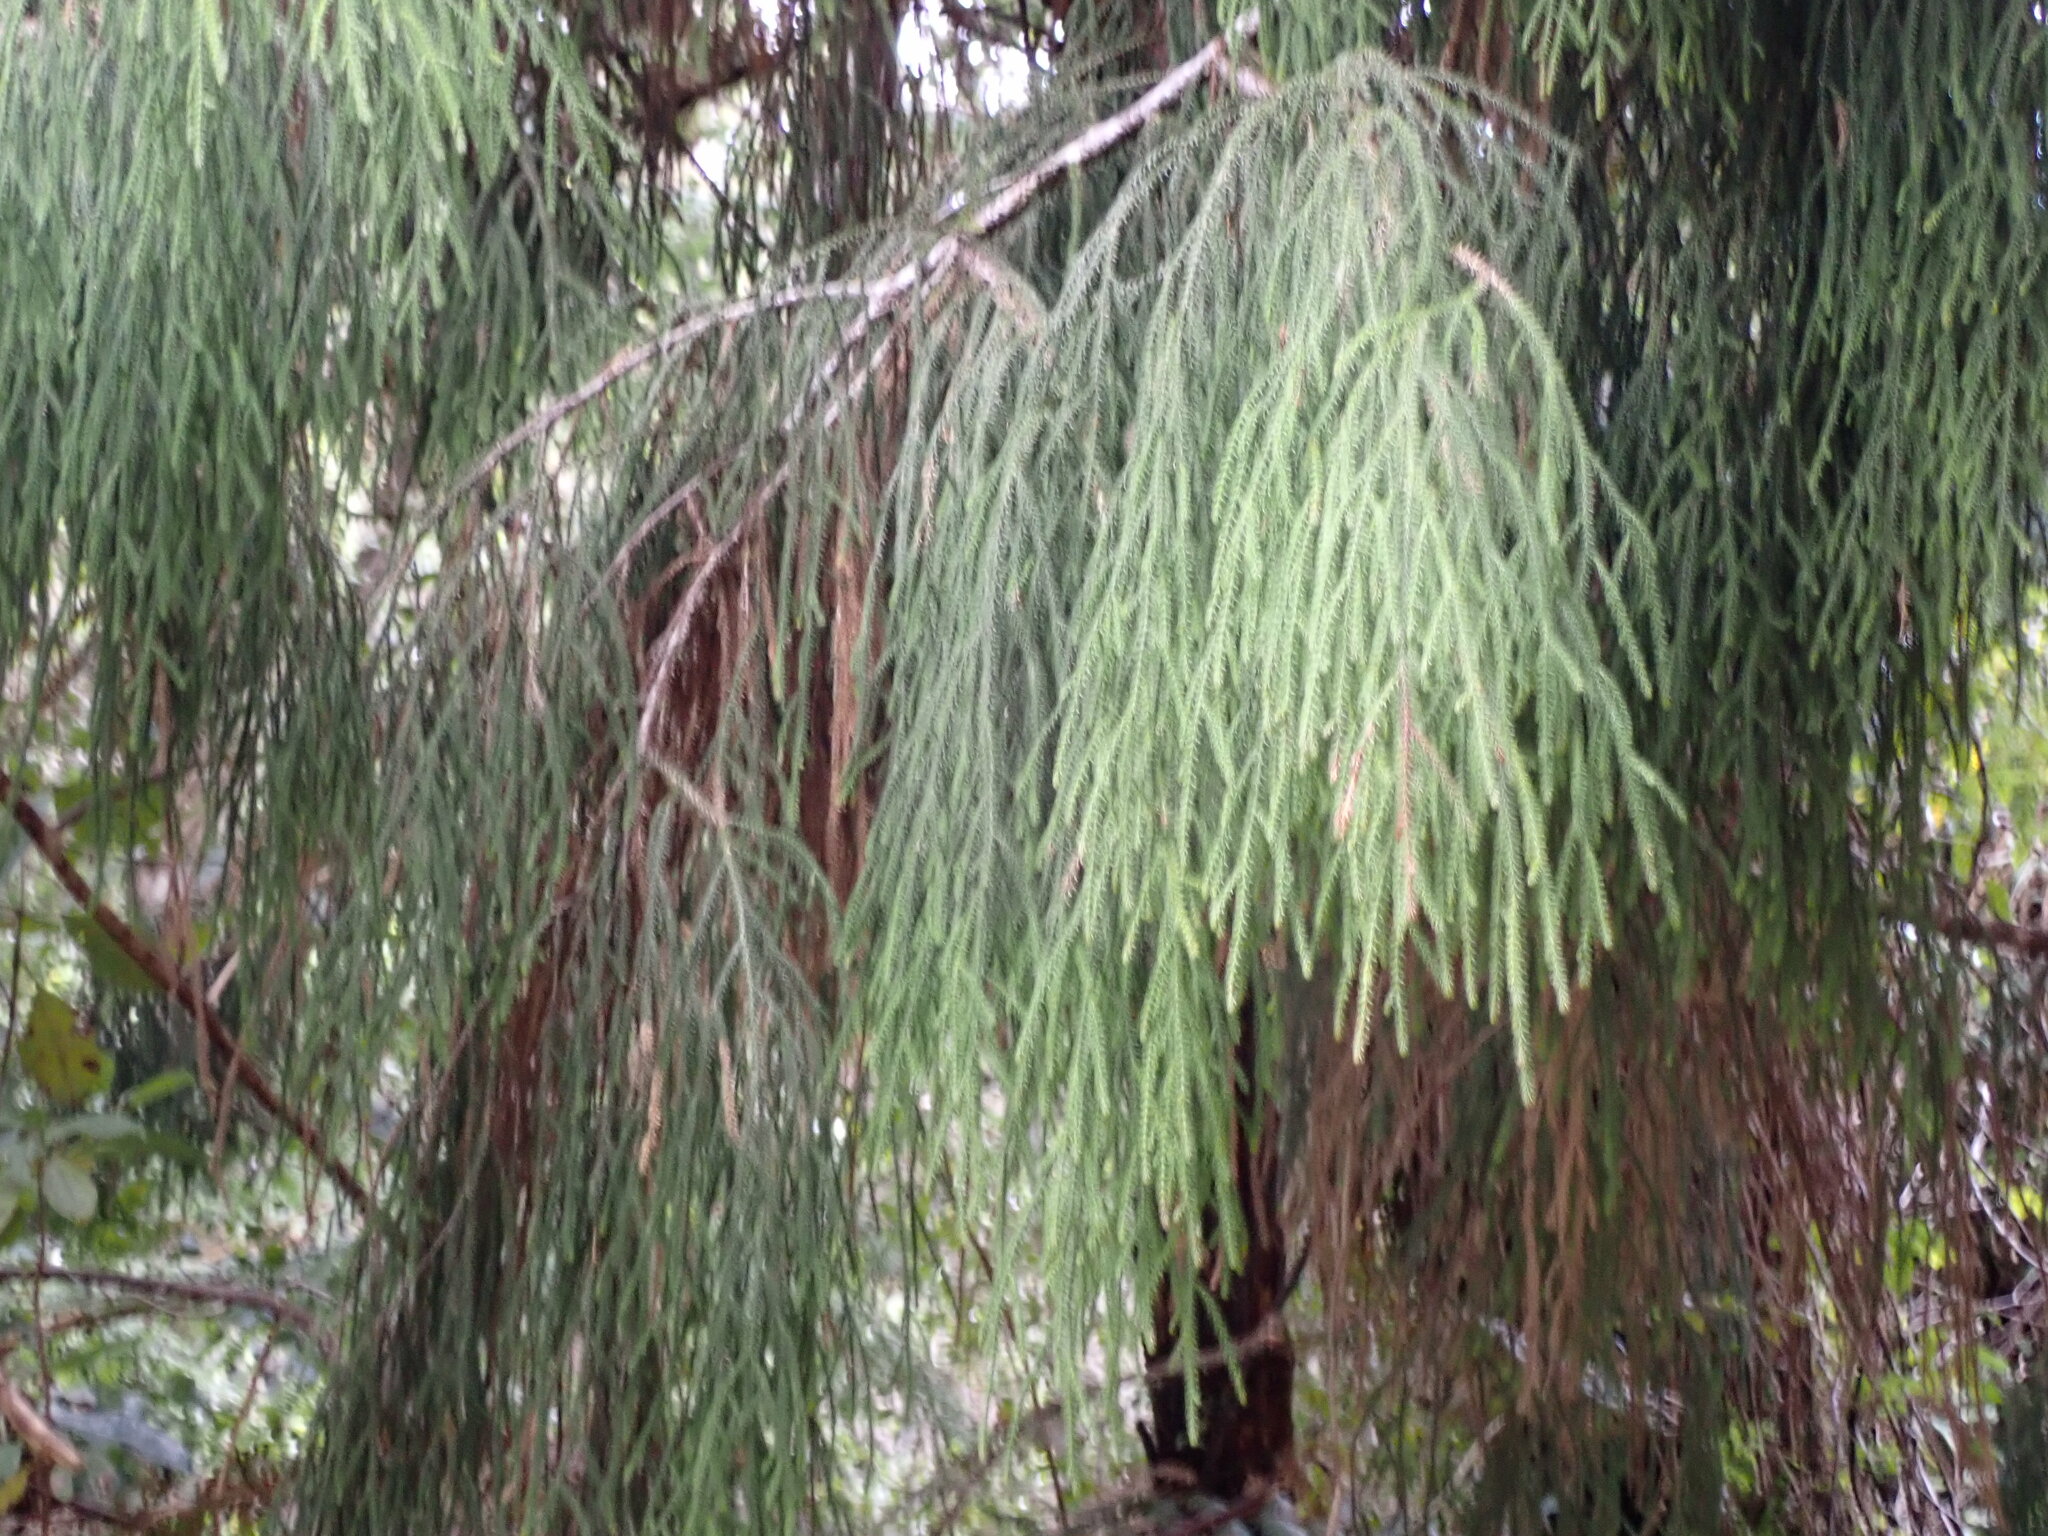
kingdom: Plantae
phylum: Tracheophyta
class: Pinopsida
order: Pinales
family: Podocarpaceae
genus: Dacrydium
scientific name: Dacrydium cupressinum
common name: Red pine
